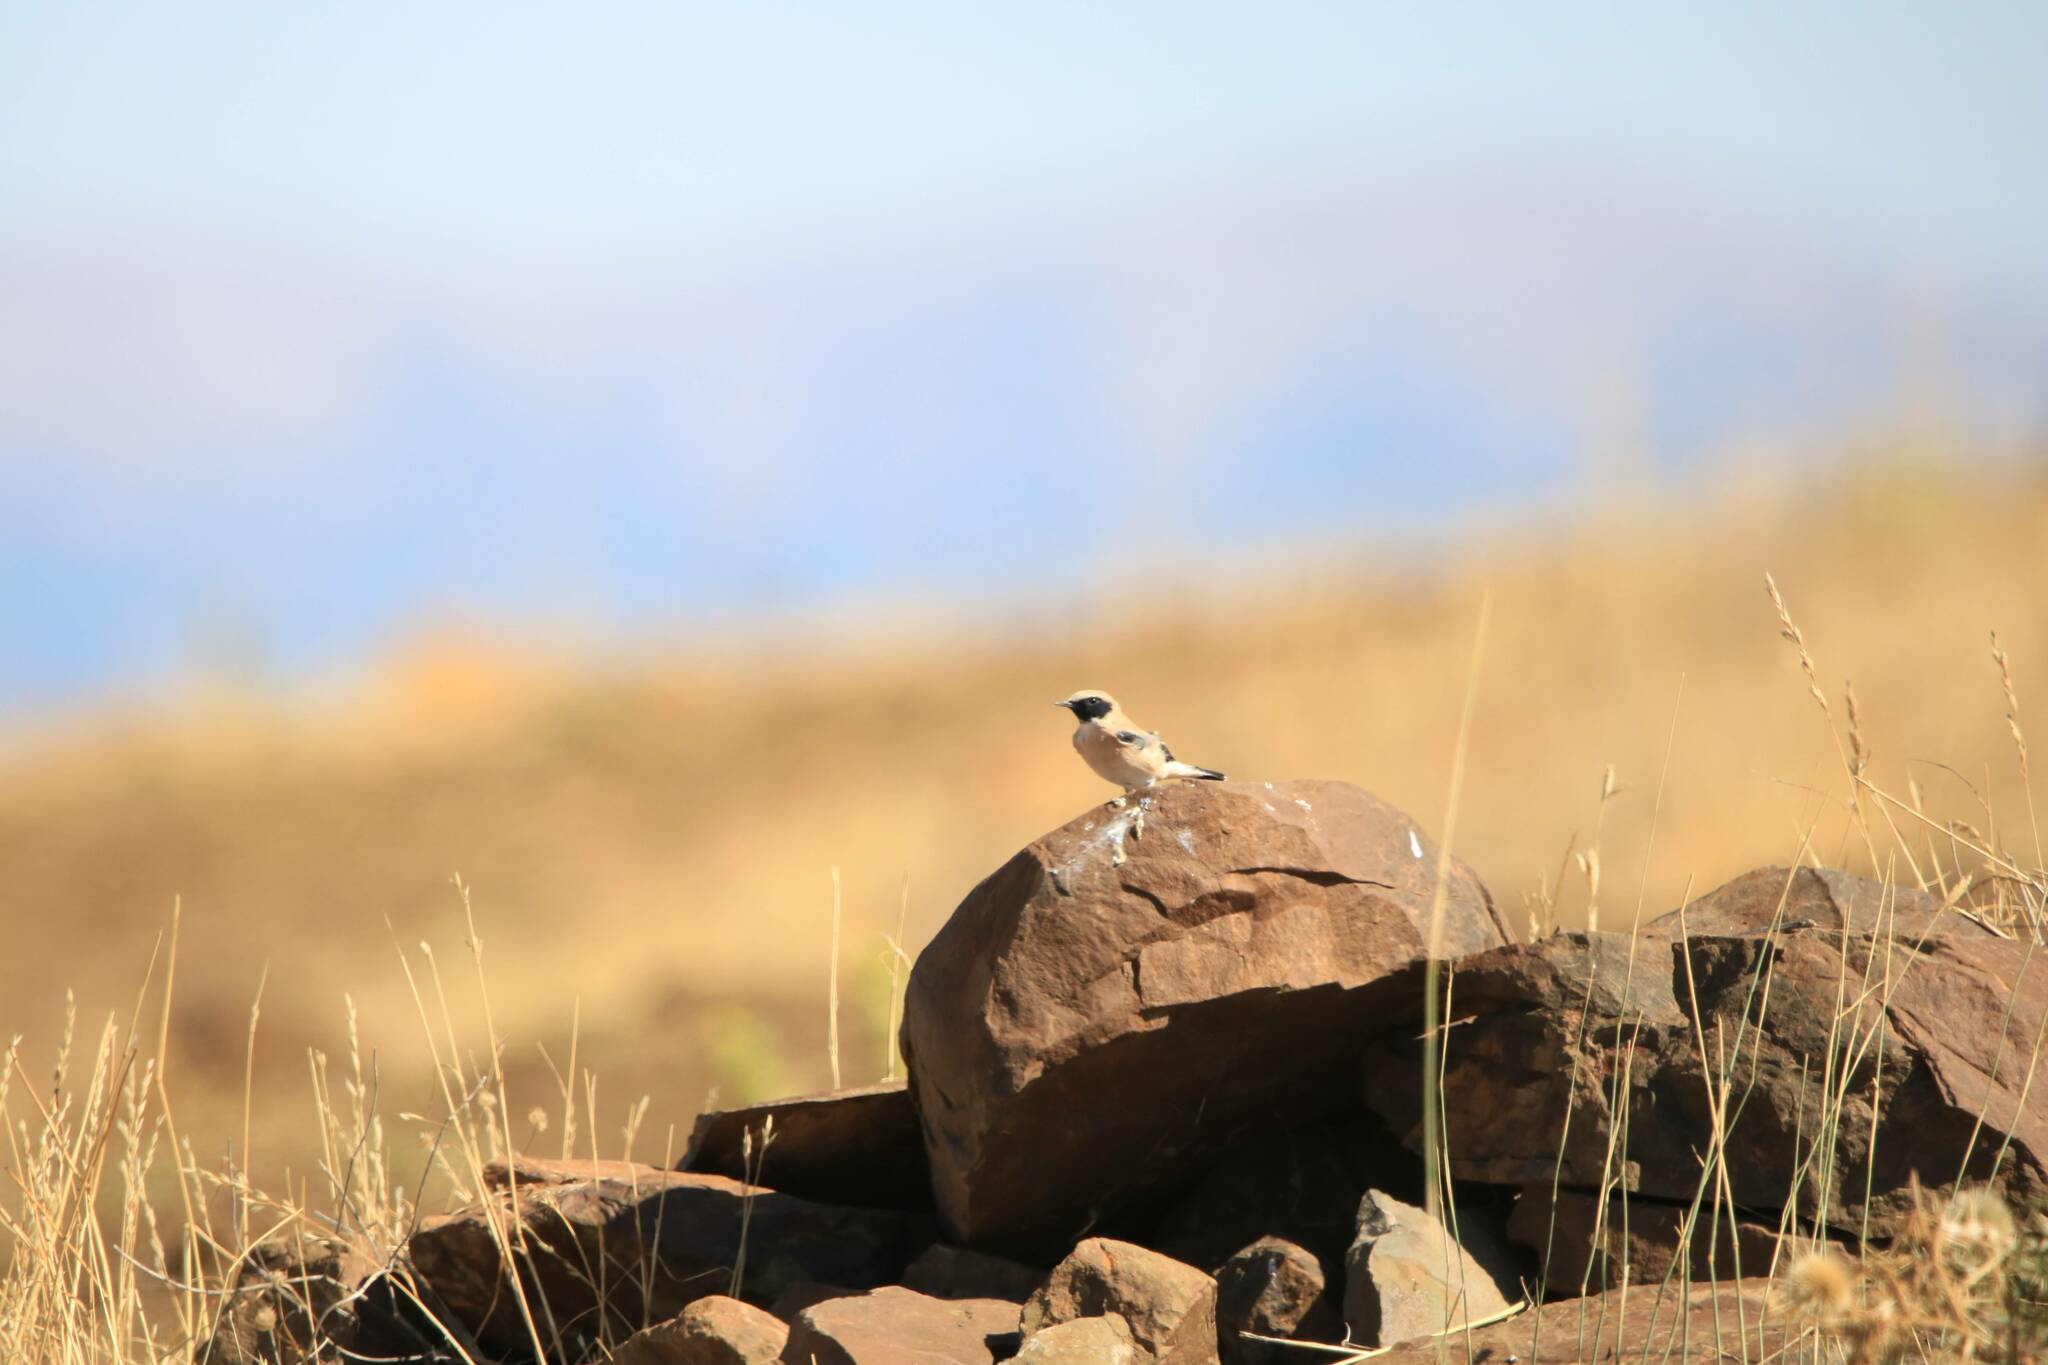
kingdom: Animalia
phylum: Chordata
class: Aves
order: Passeriformes
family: Muscicapidae
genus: Oenanthe
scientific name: Oenanthe hispanica
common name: Black-eared wheatear
